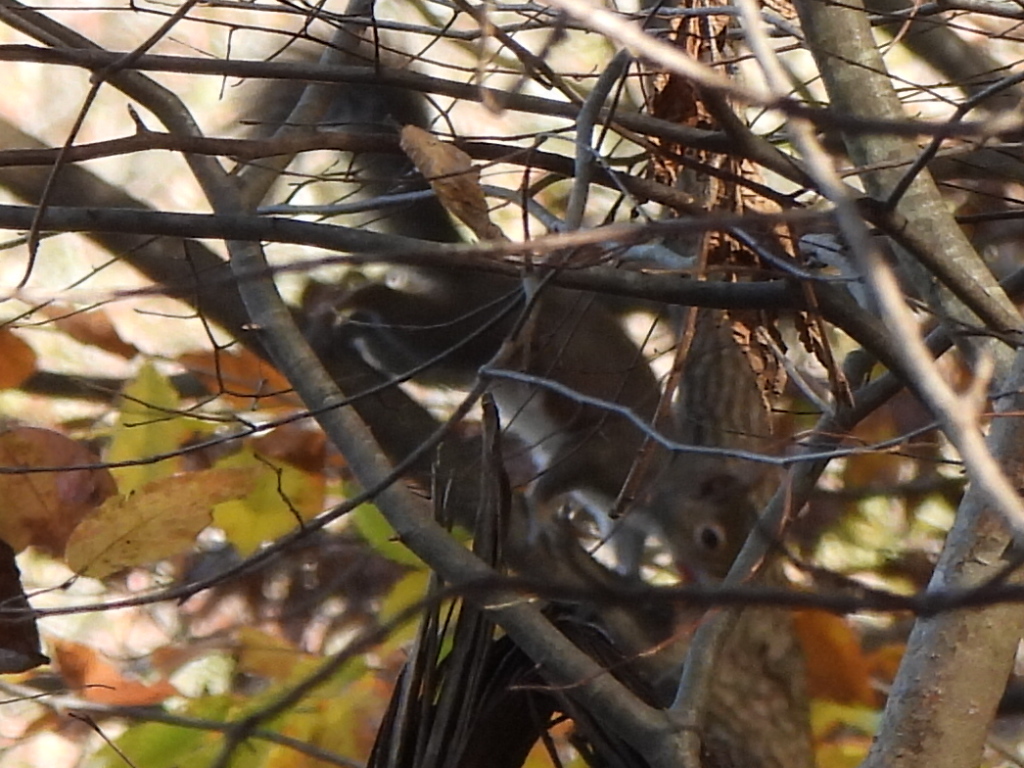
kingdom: Animalia
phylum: Chordata
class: Mammalia
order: Rodentia
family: Sciuridae
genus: Sciurus
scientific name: Sciurus carolinensis
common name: Eastern gray squirrel
